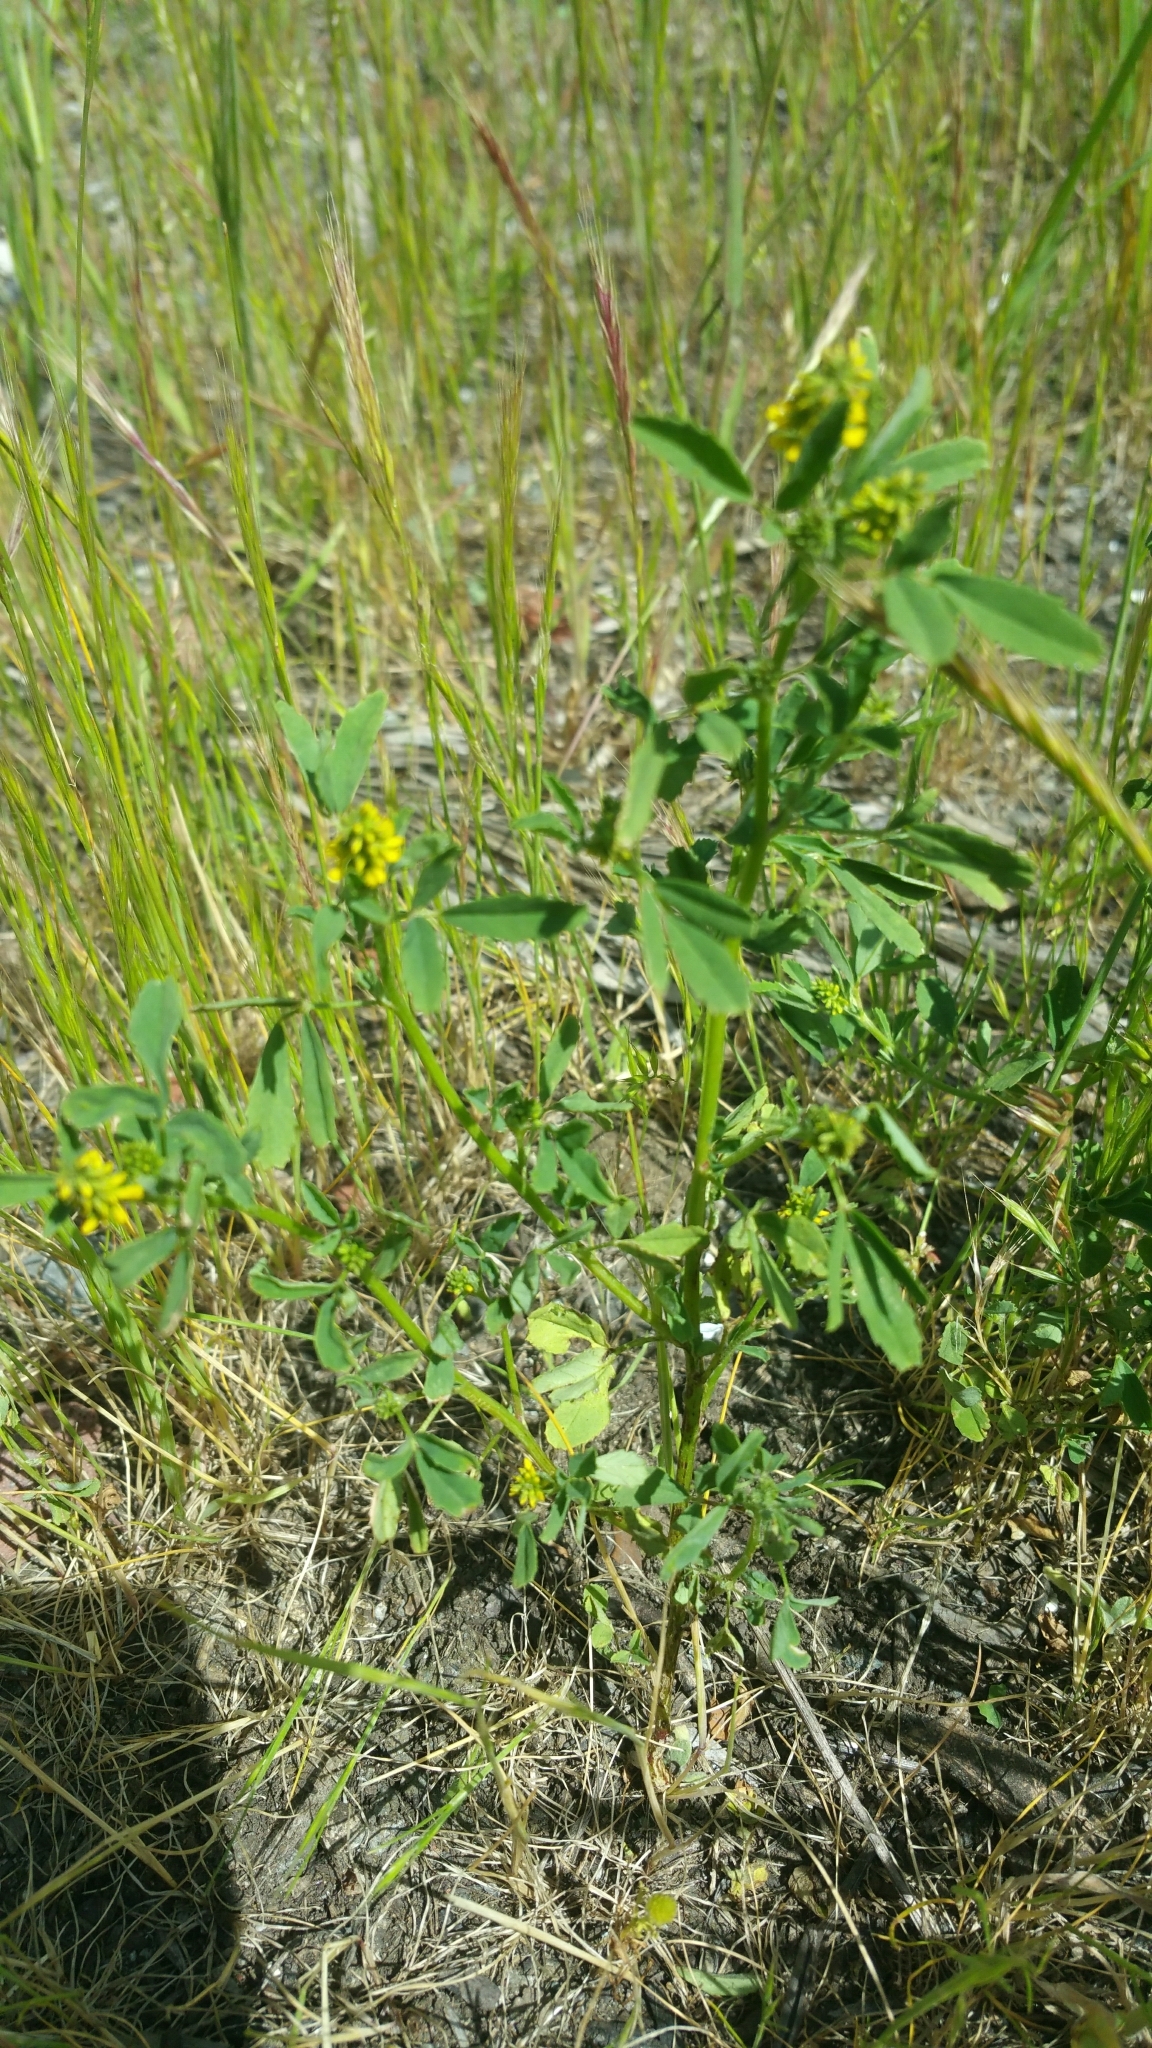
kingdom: Plantae
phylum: Tracheophyta
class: Magnoliopsida
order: Fabales
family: Fabaceae
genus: Melilotus
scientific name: Melilotus indicus
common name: Small melilot
